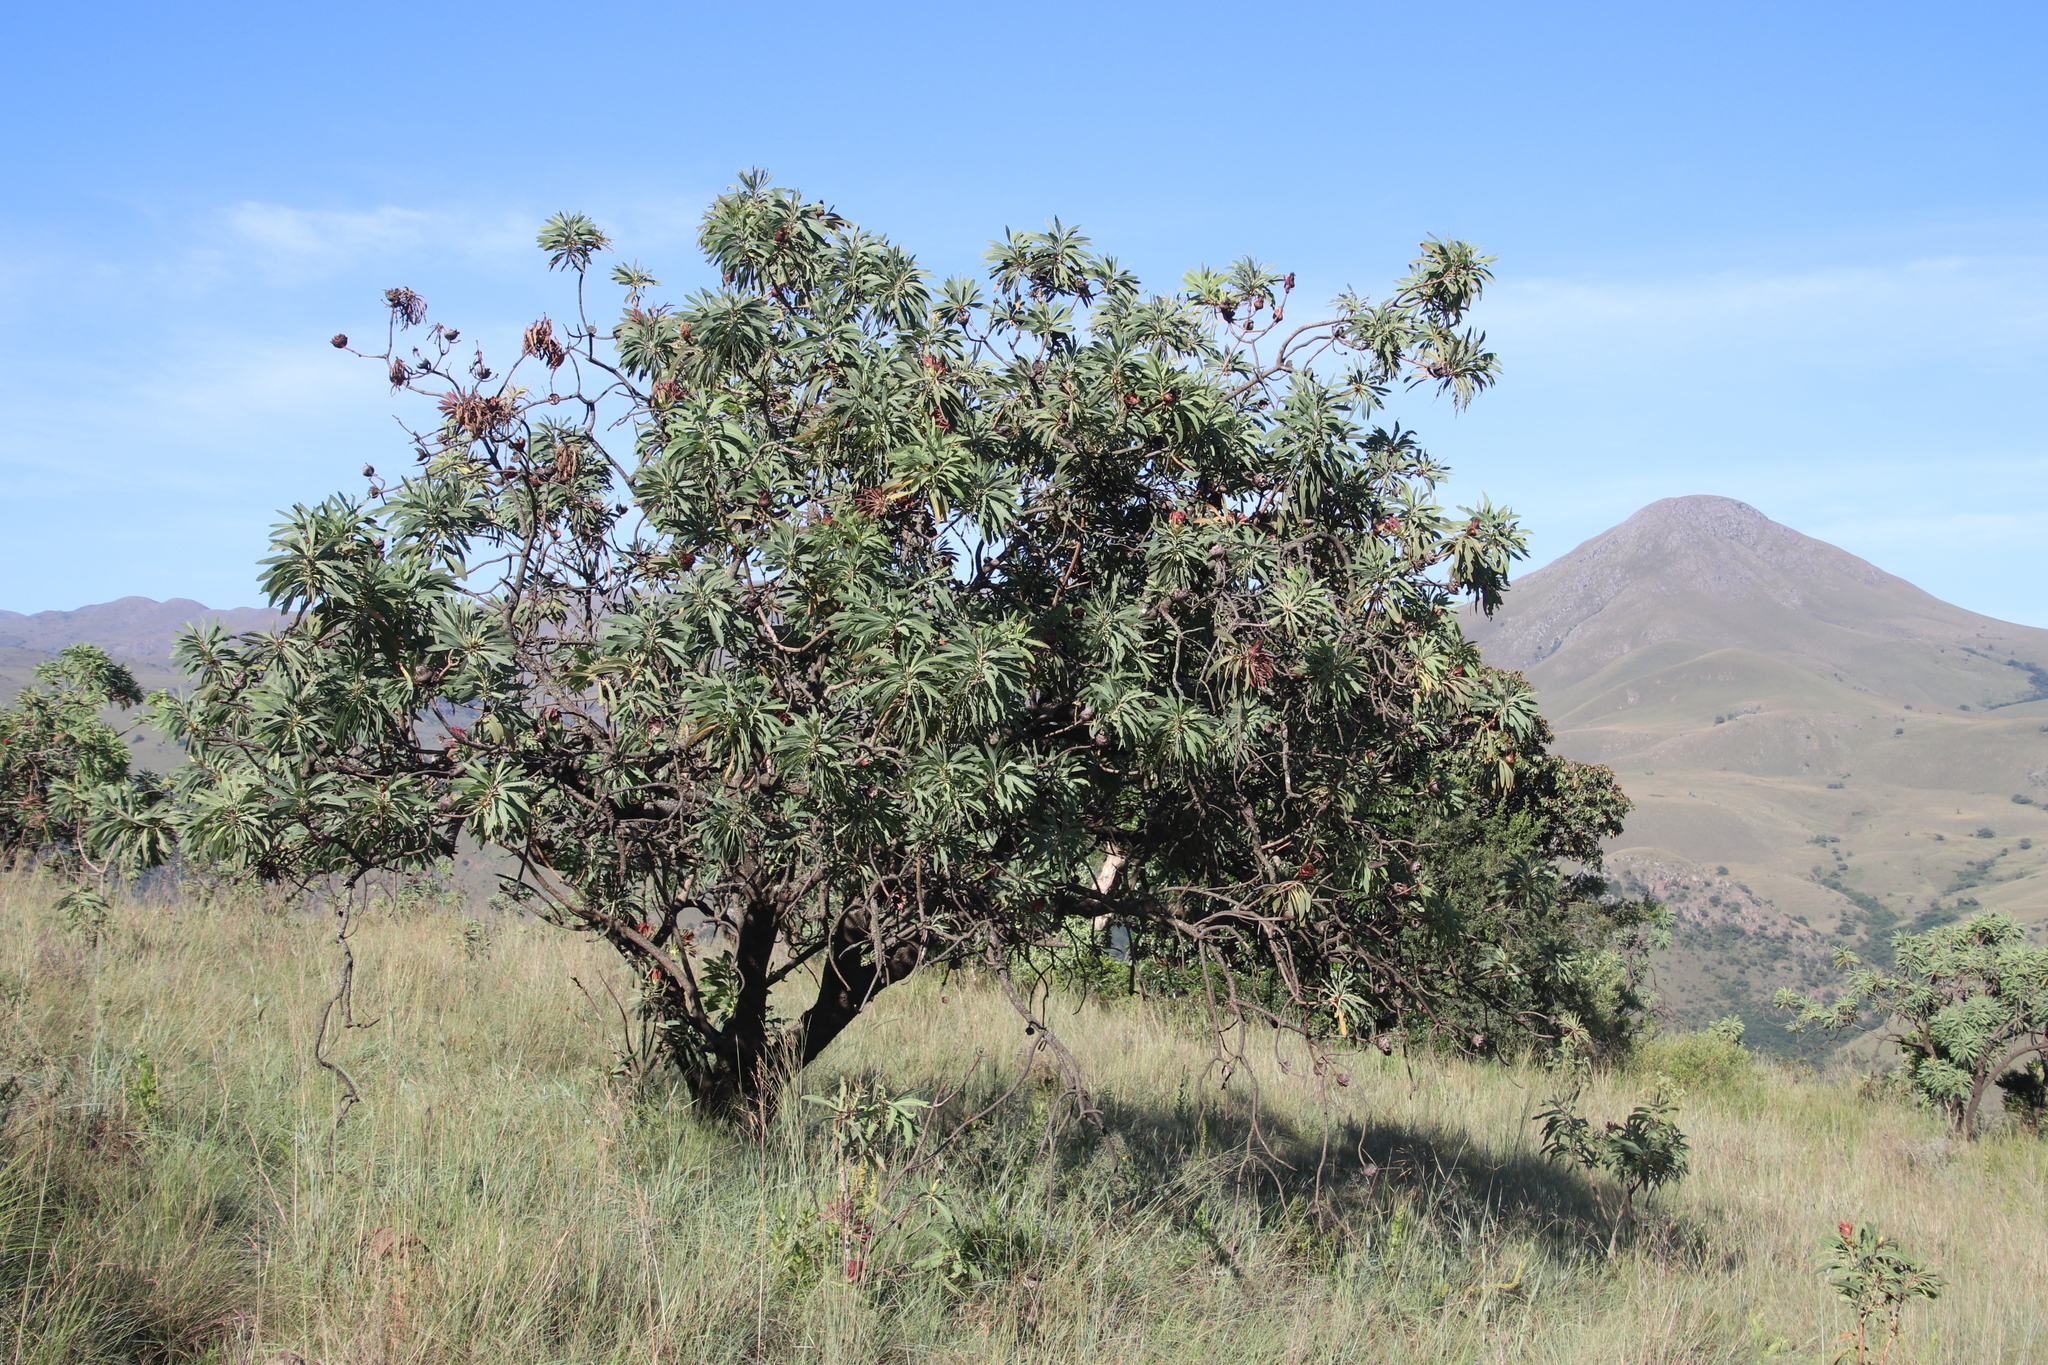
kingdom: Plantae
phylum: Tracheophyta
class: Magnoliopsida
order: Proteales
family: Proteaceae
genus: Protea
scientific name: Protea caffra
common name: Common sugarbush
